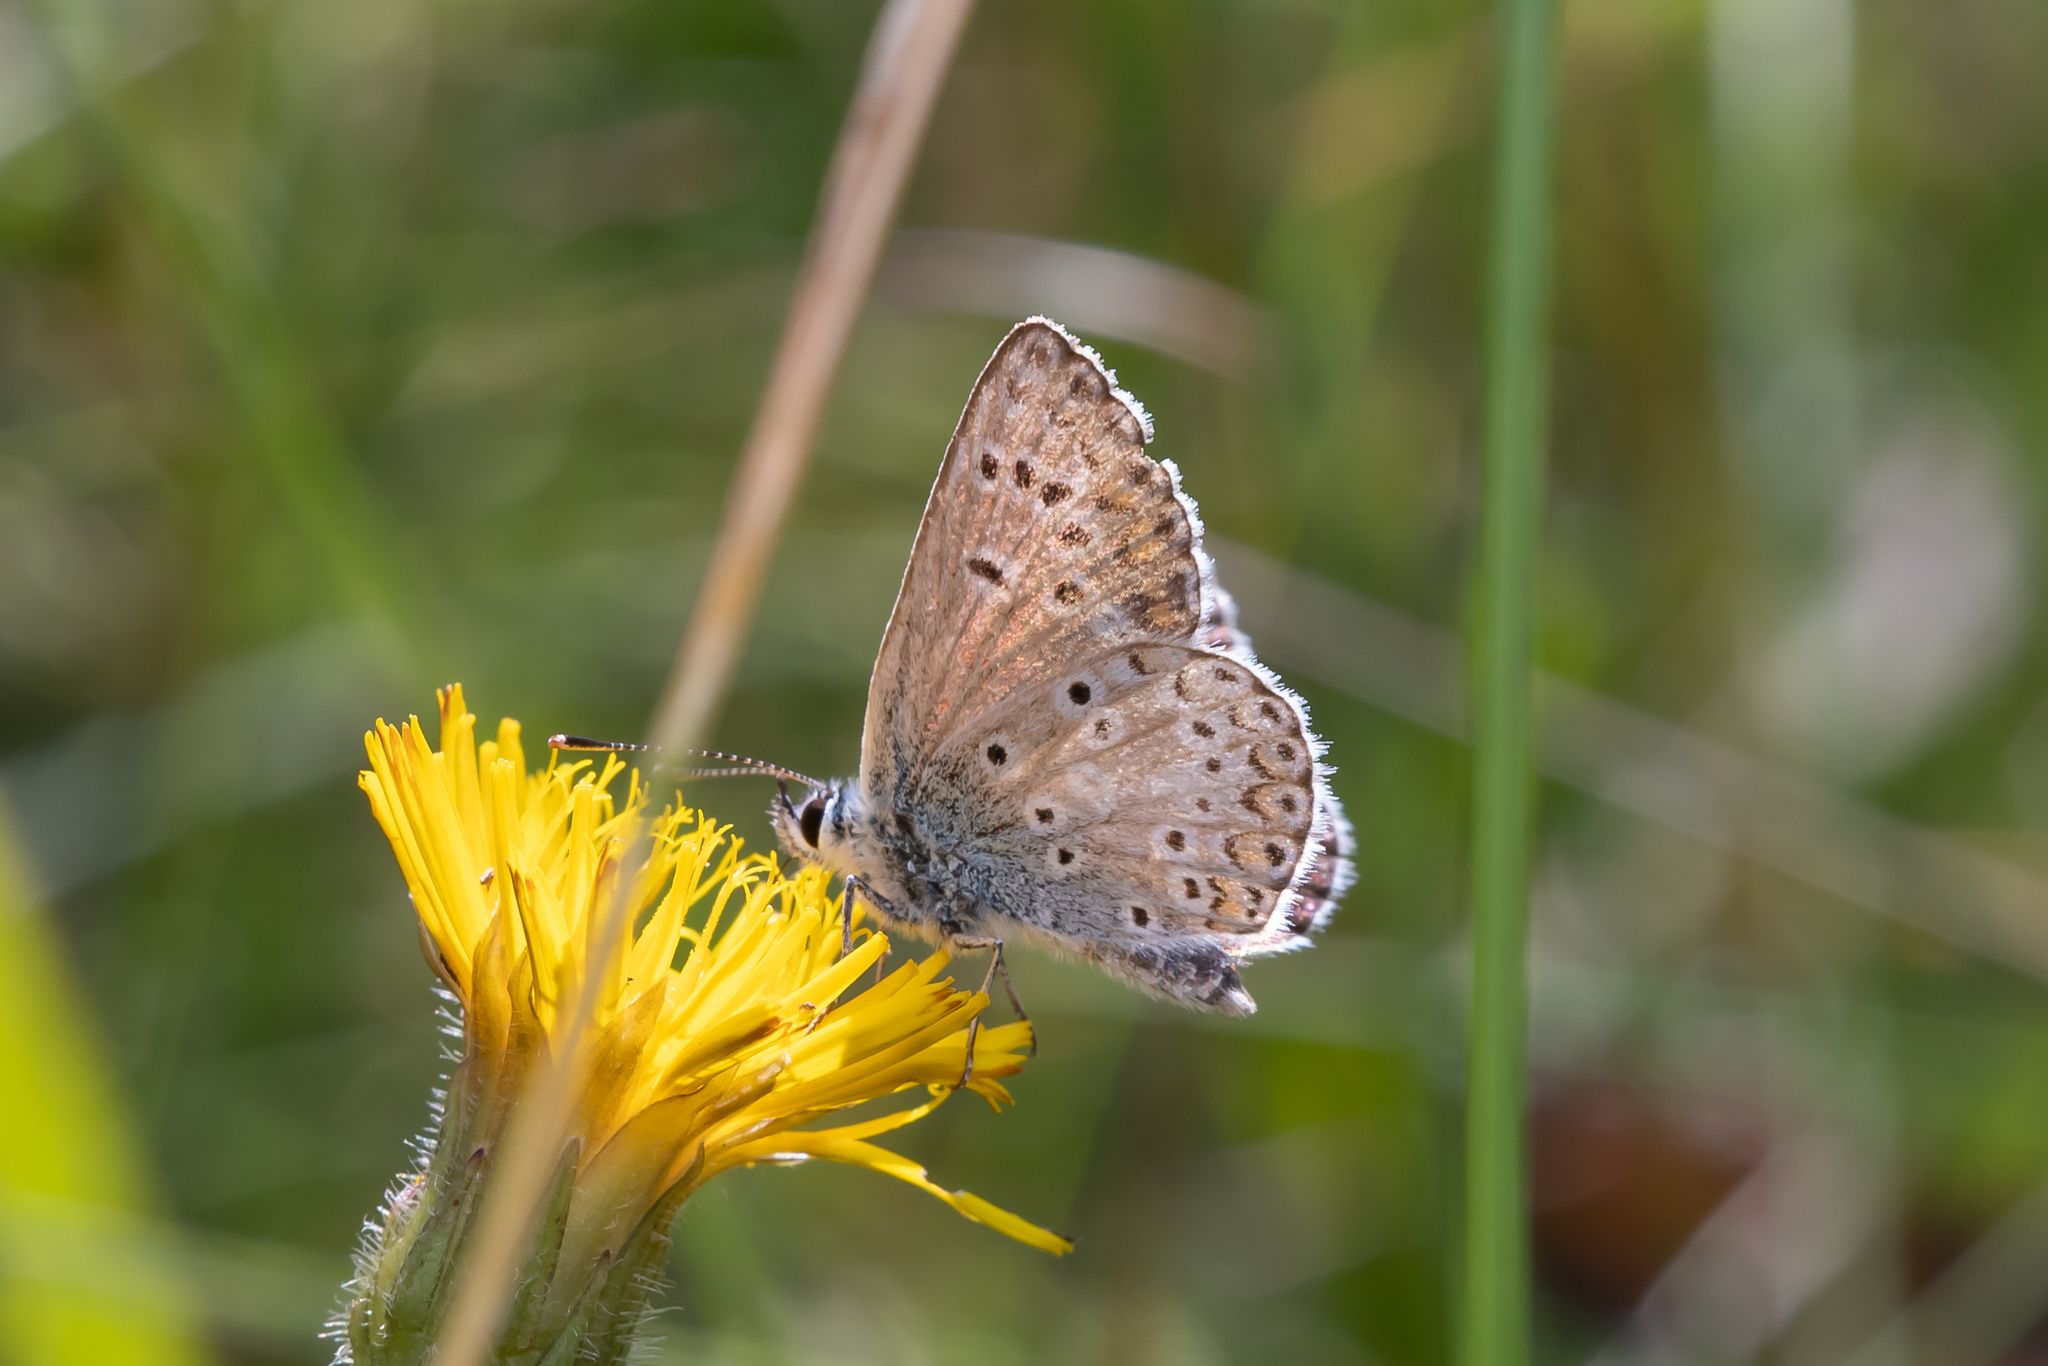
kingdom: Animalia
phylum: Arthropoda
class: Insecta
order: Lepidoptera
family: Lycaenidae
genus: Aricia
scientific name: Aricia artaxerxes
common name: Northern brown argus
